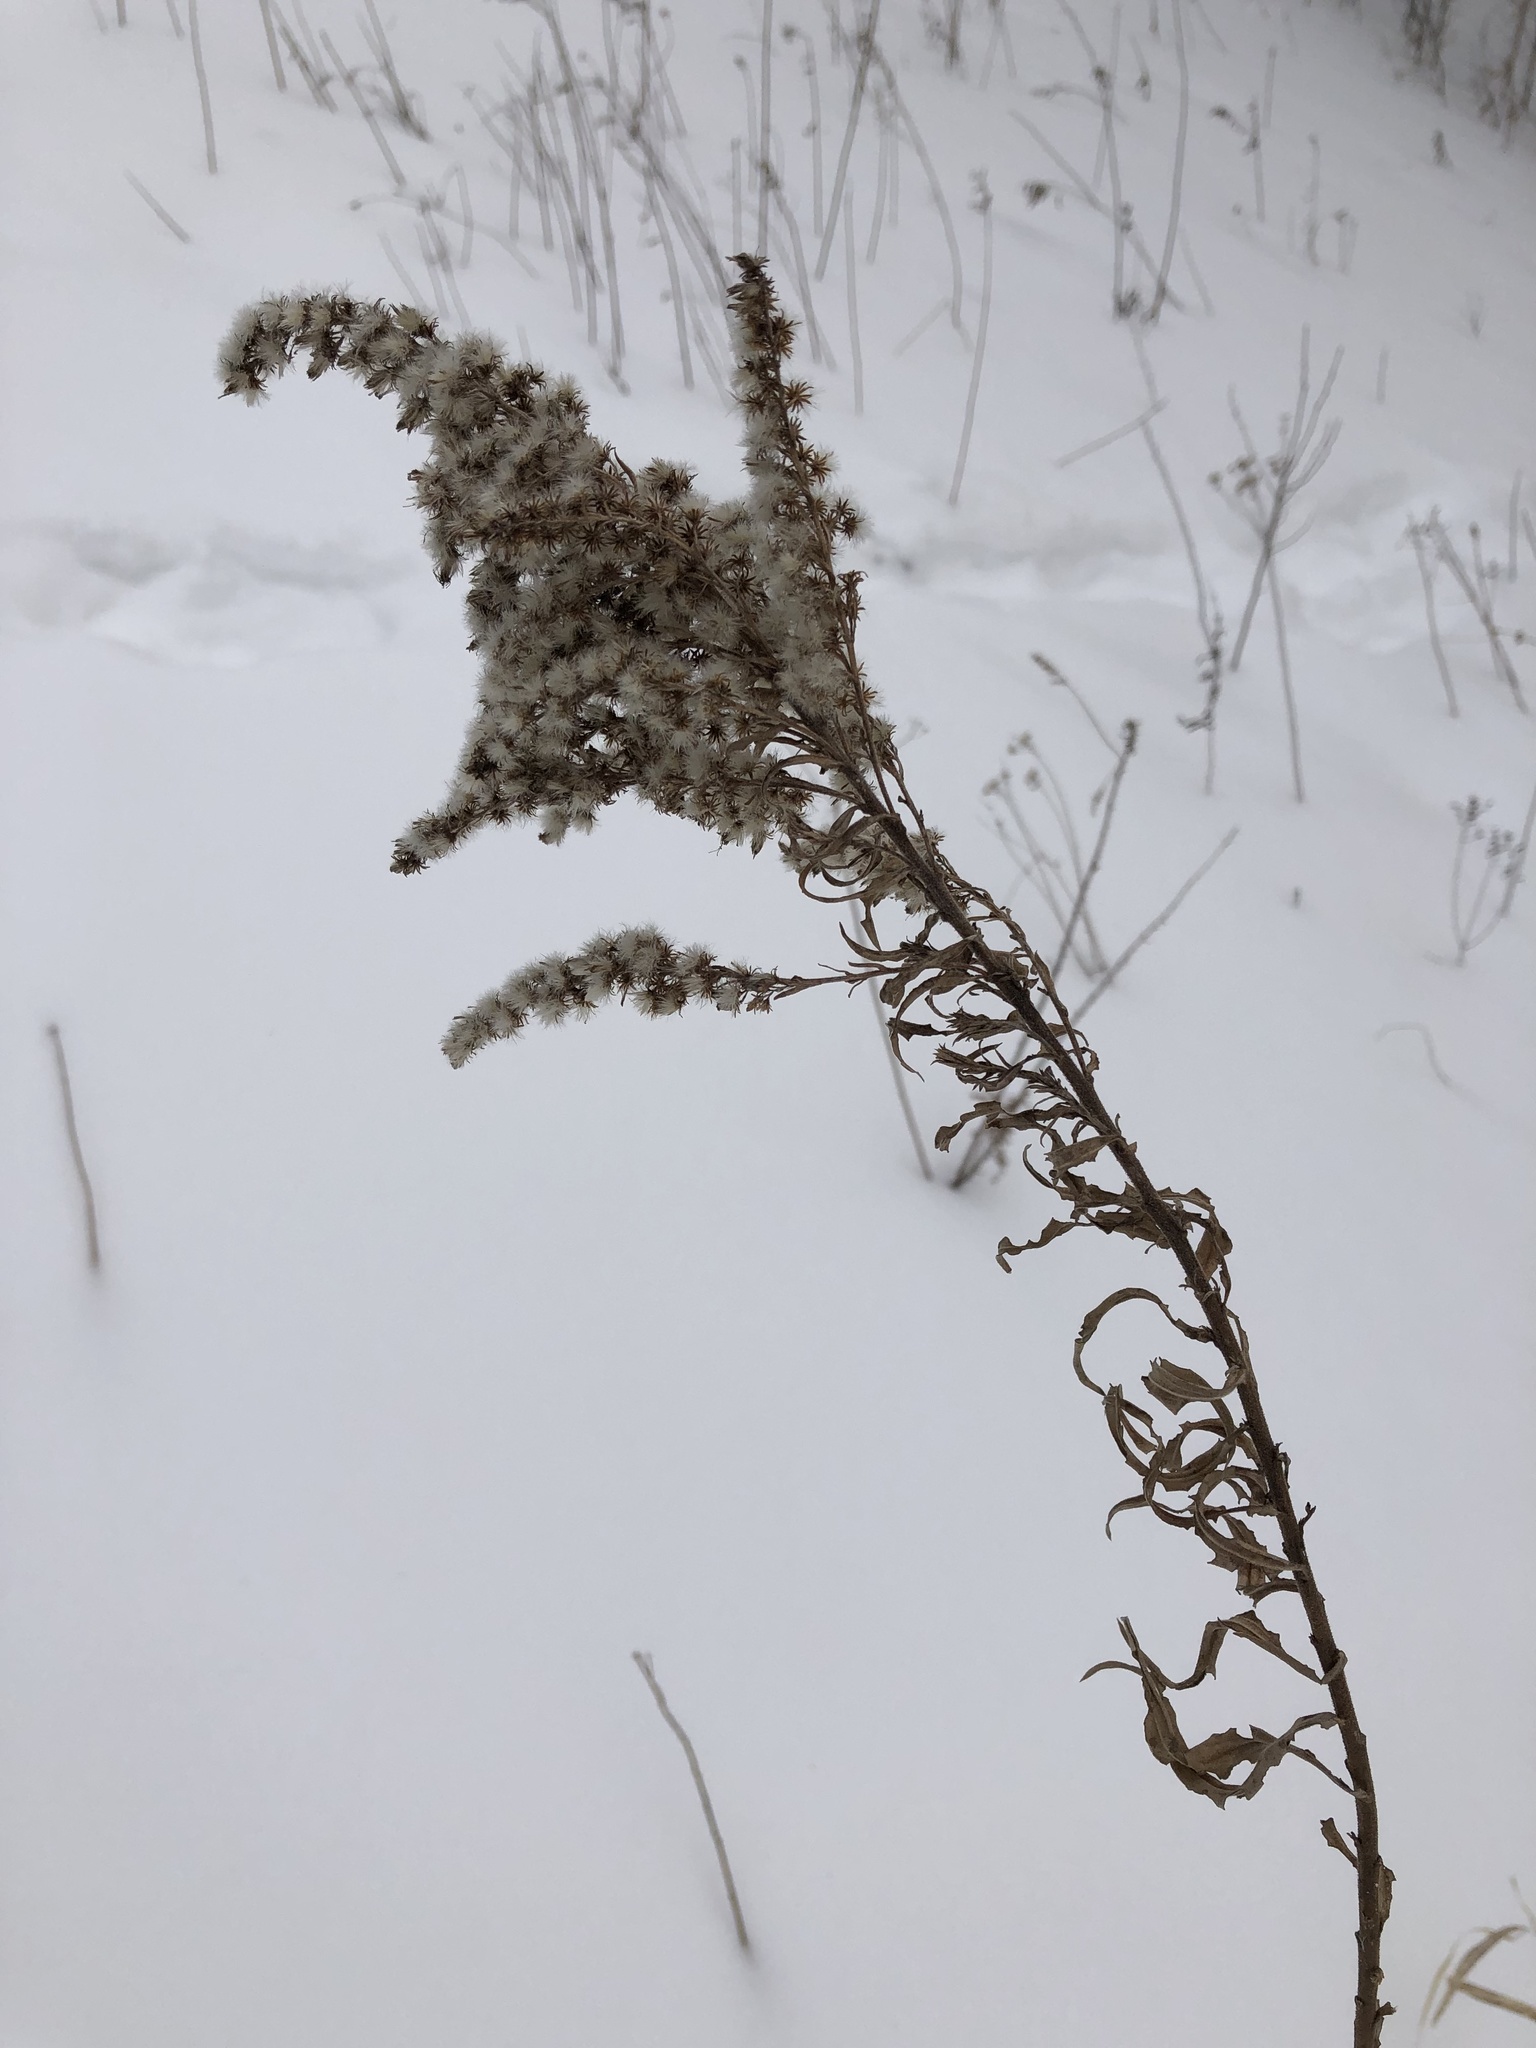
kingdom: Plantae
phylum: Tracheophyta
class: Magnoliopsida
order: Asterales
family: Asteraceae
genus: Solidago
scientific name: Solidago canadensis
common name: Canada goldenrod
